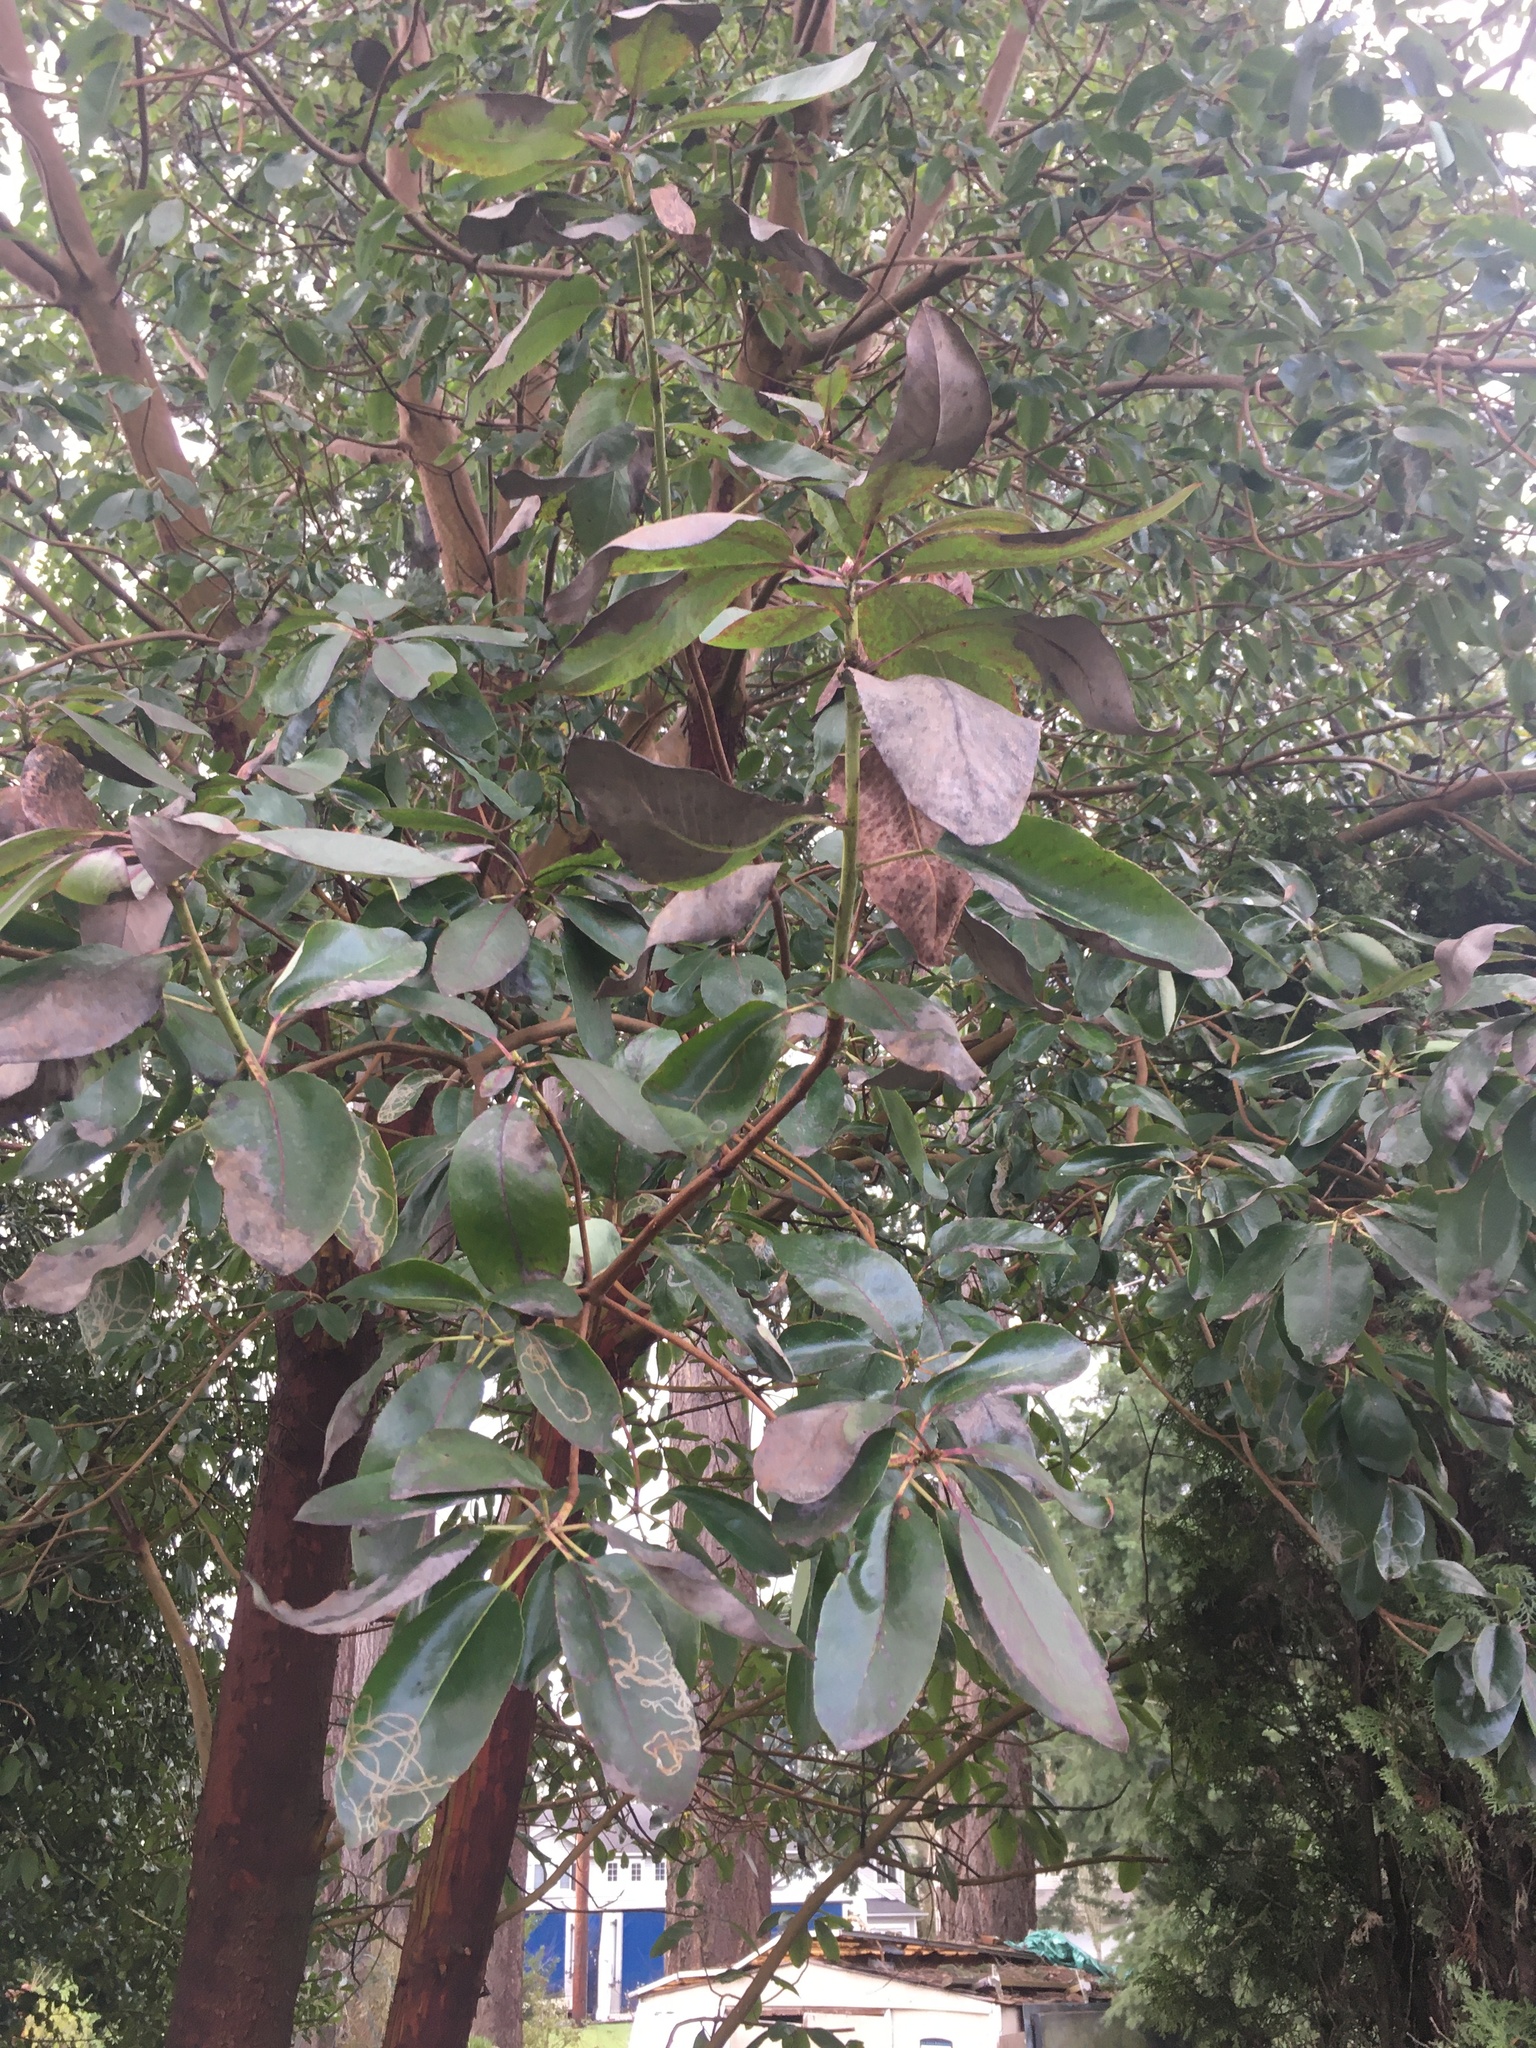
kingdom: Plantae
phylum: Tracheophyta
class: Magnoliopsida
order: Ericales
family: Ericaceae
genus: Arbutus
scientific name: Arbutus menziesii
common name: Pacific madrone
